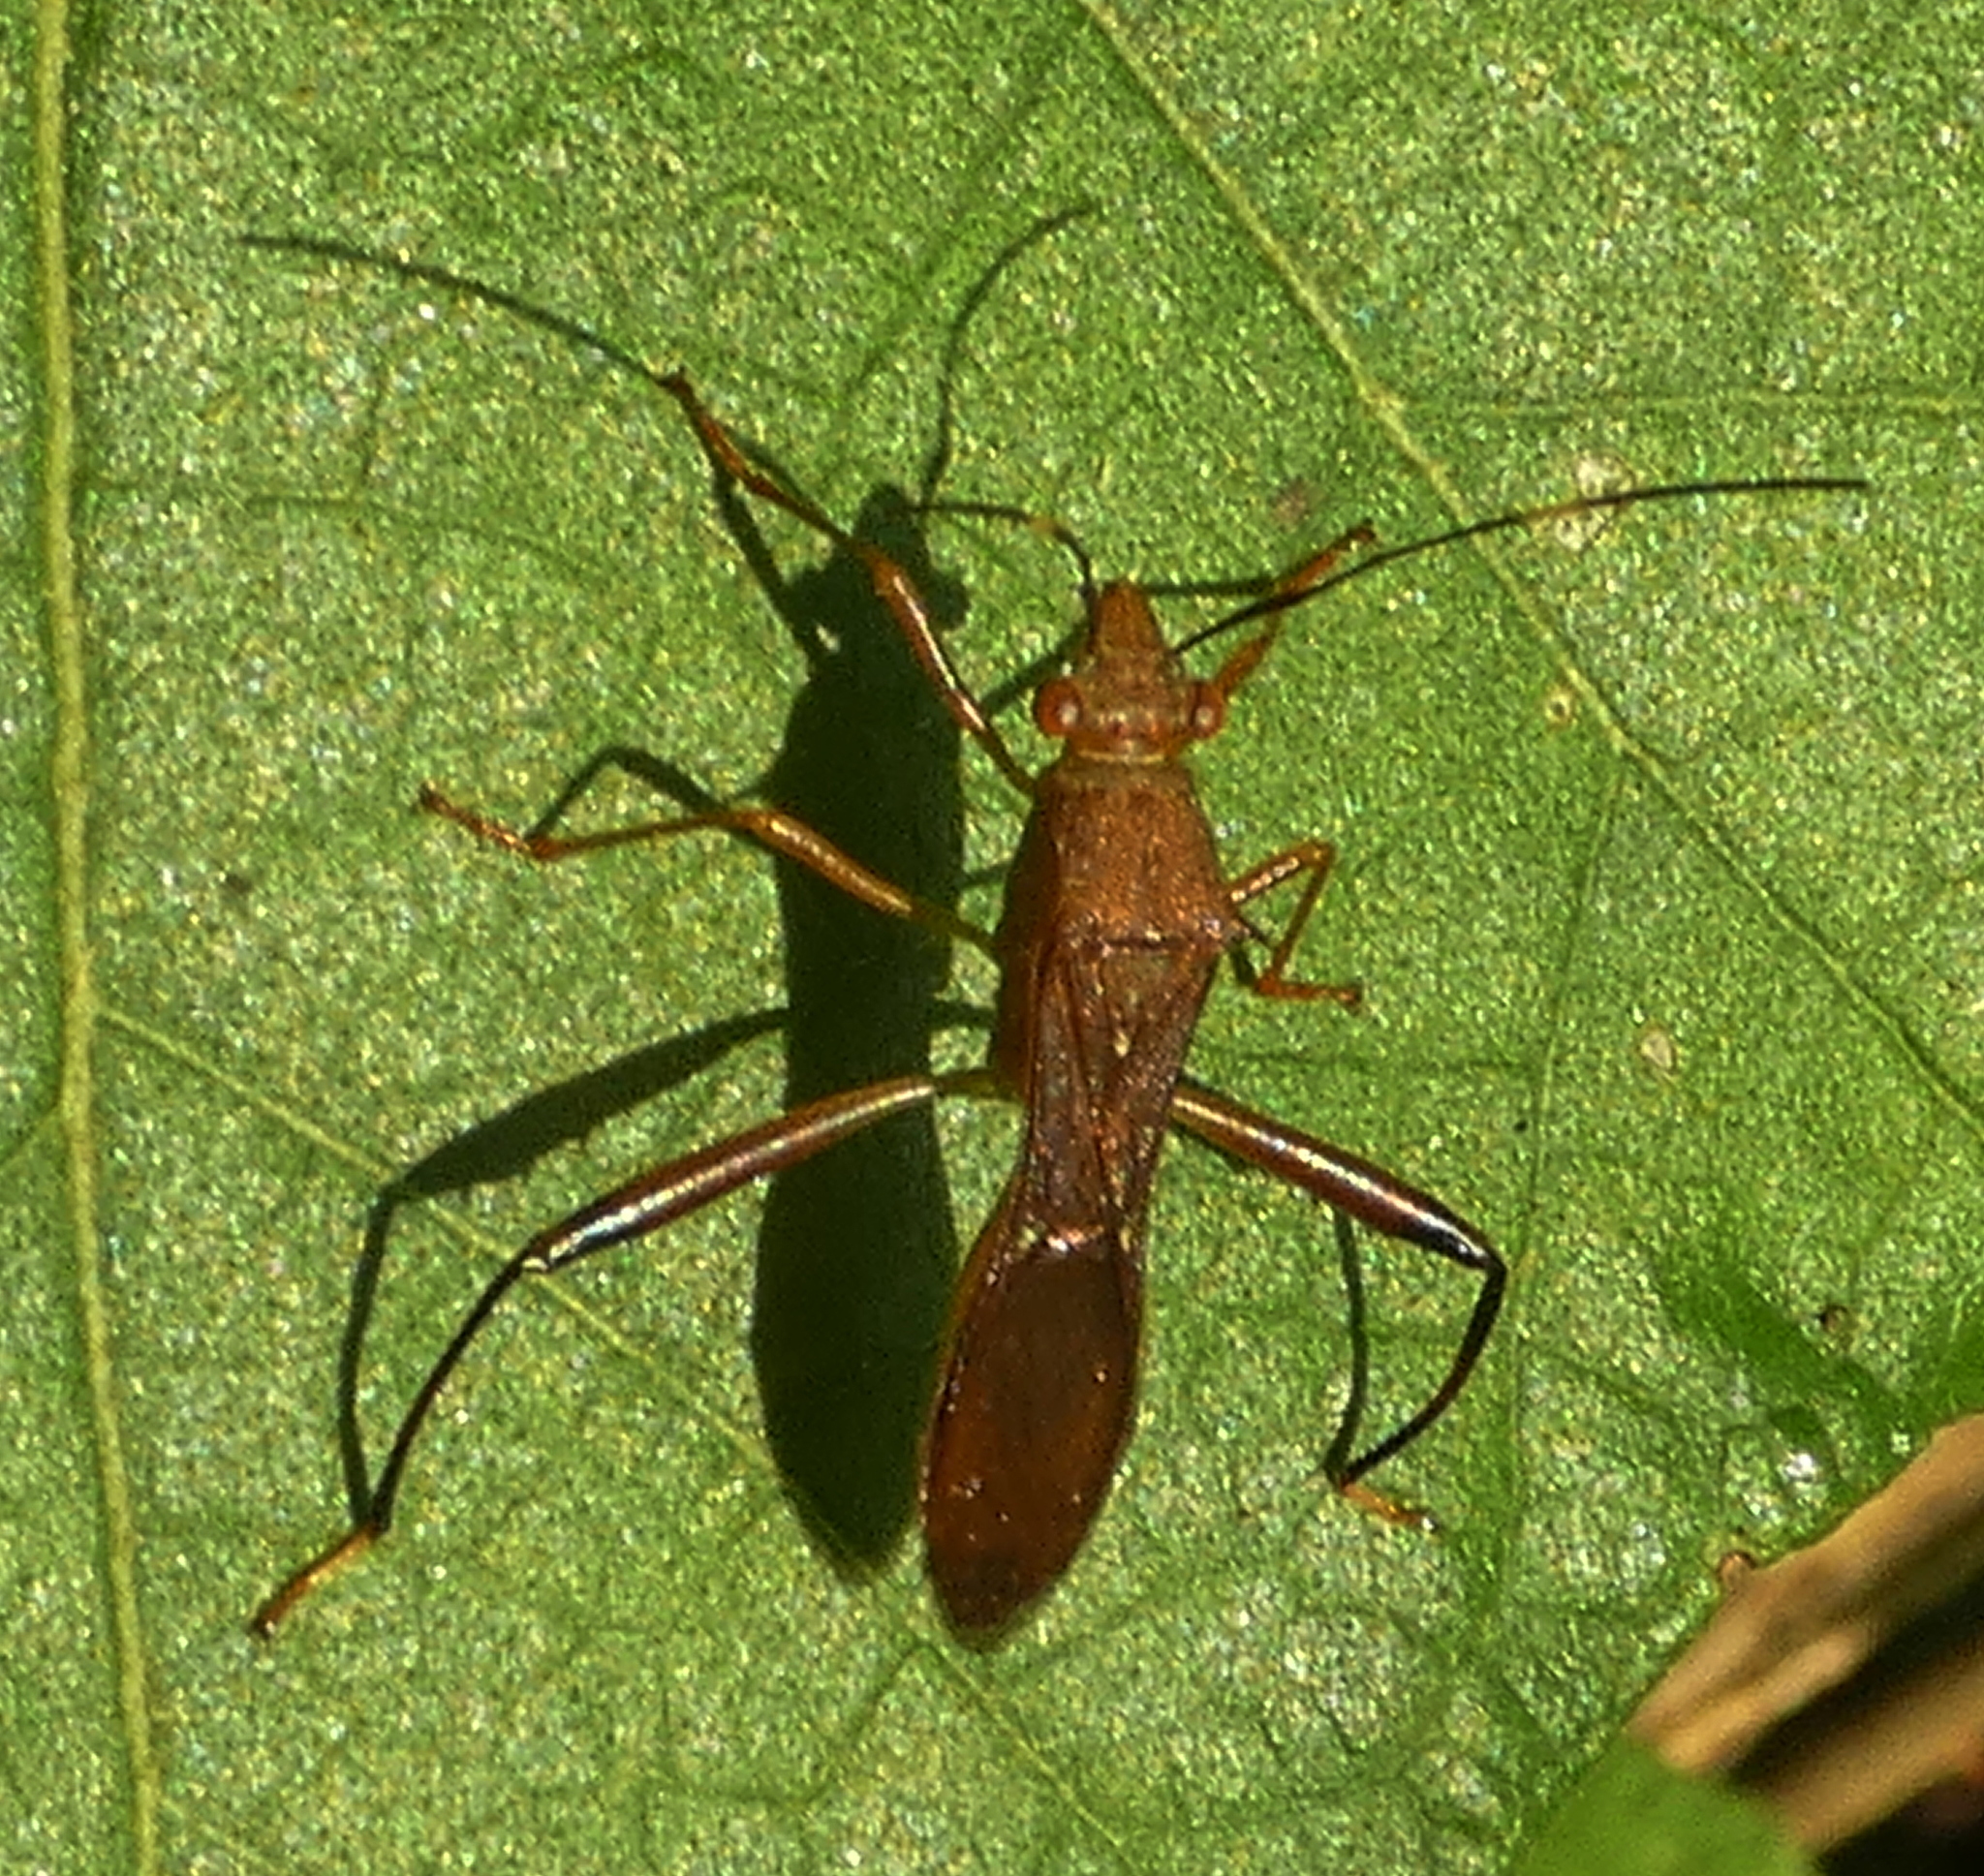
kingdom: Animalia
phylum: Arthropoda
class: Insecta
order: Hemiptera
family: Alydidae
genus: Neomegalotomus
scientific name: Neomegalotomus parvus
